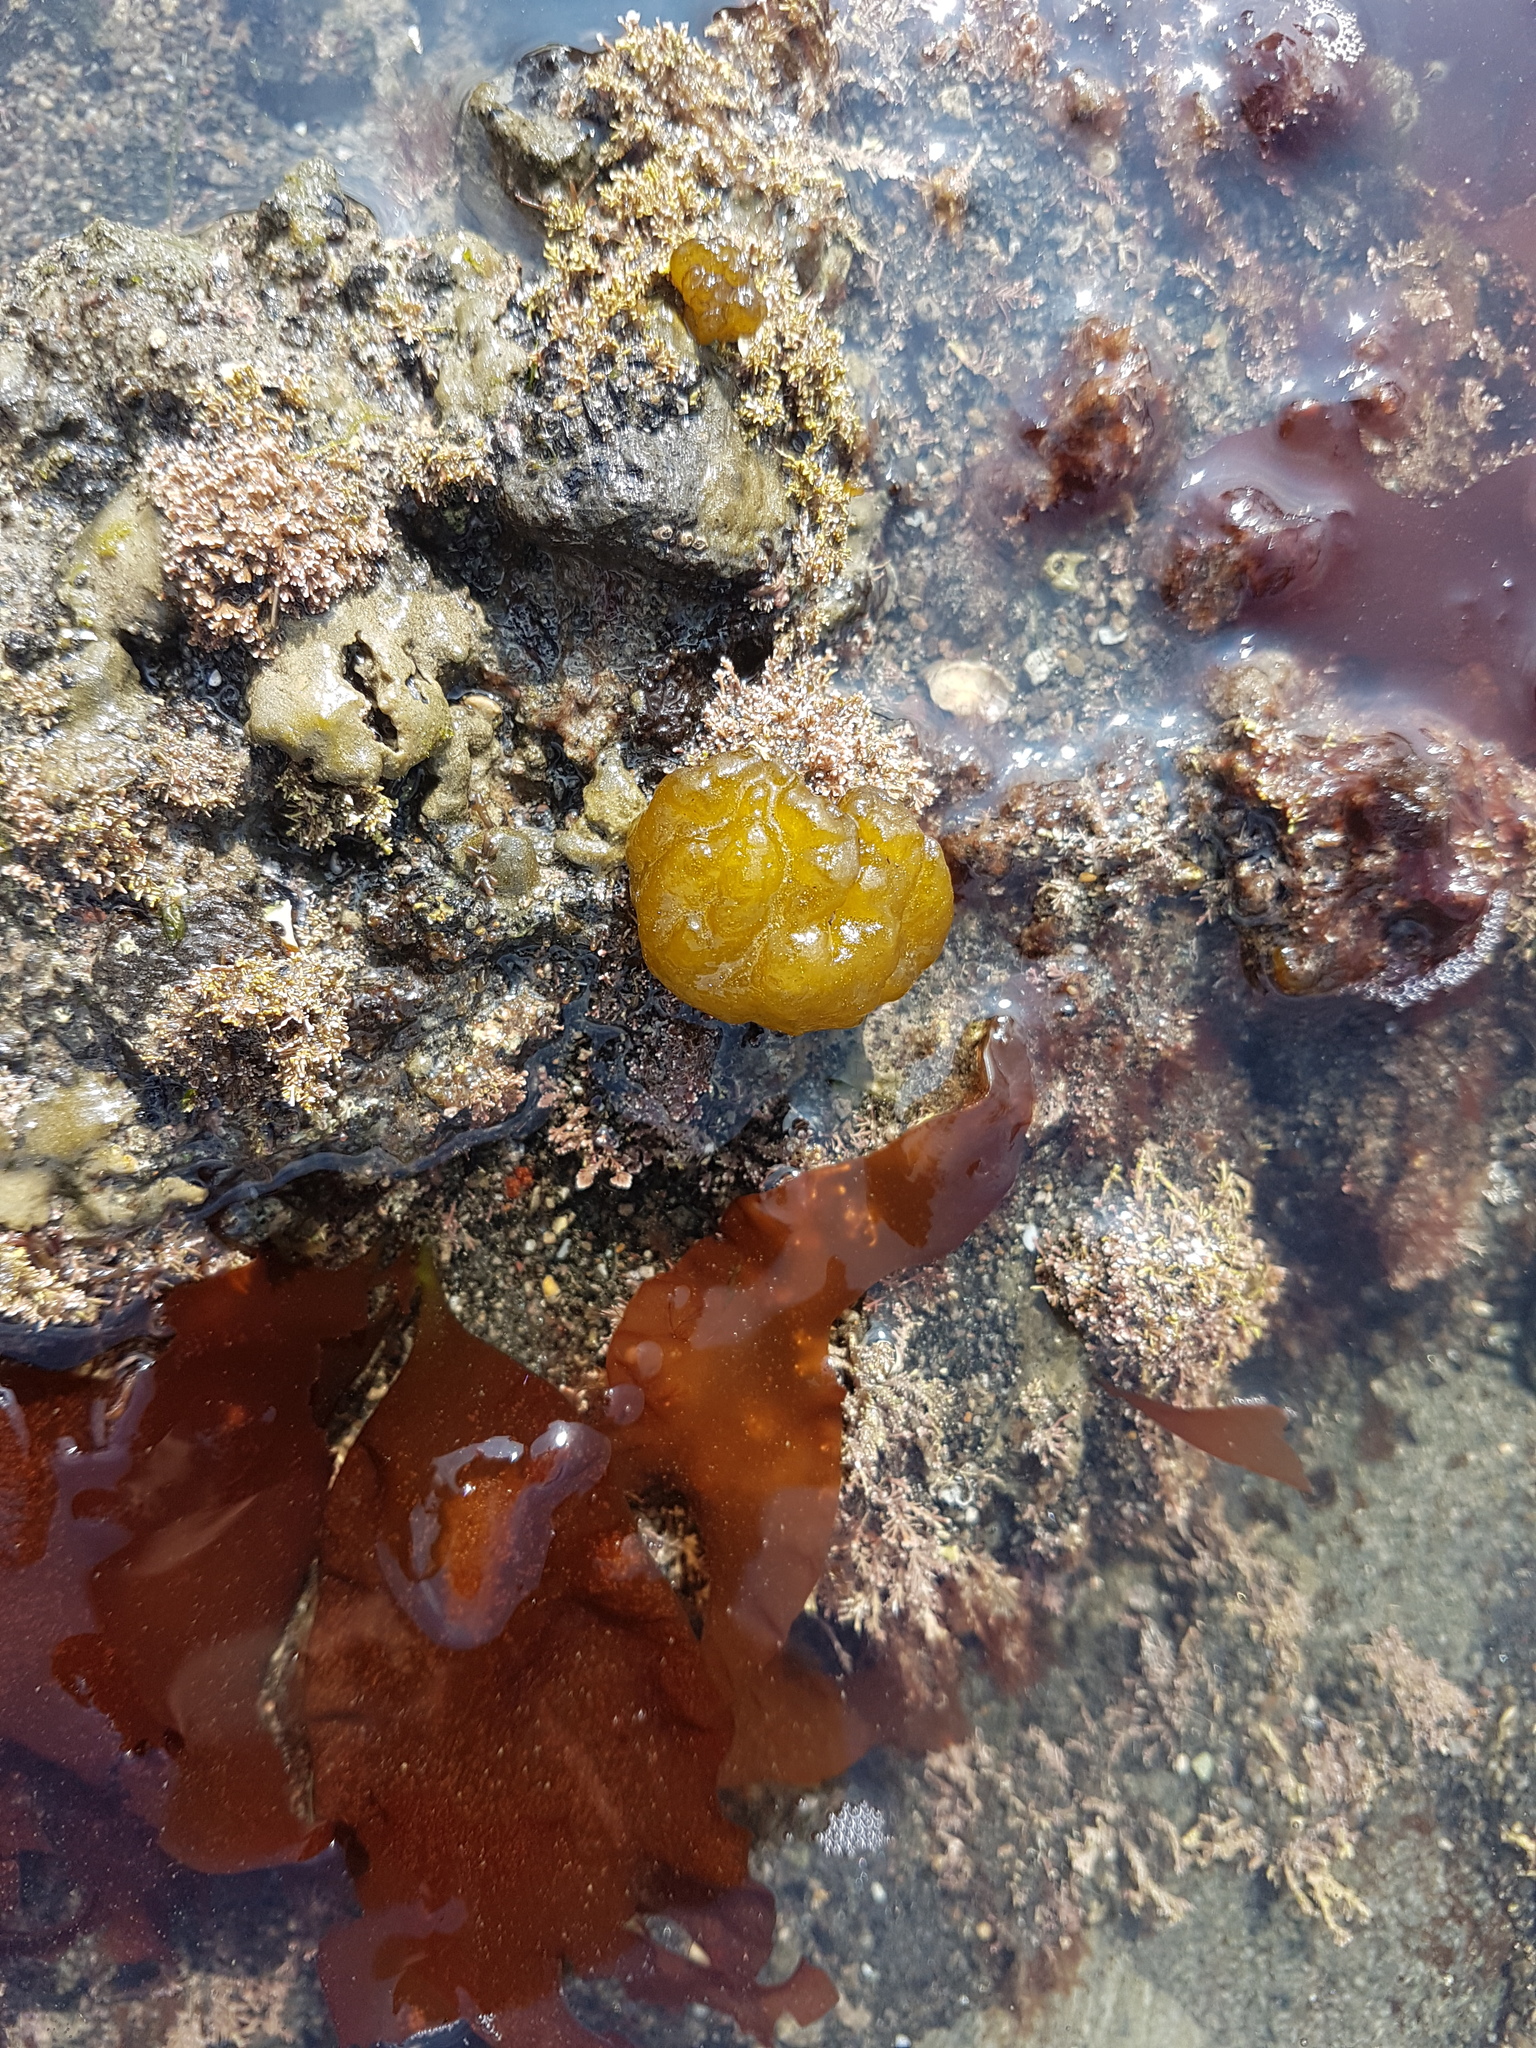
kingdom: Chromista
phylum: Ochrophyta
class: Phaeophyceae
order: Ectocarpales
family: Chordariaceae
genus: Leathesia
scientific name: Leathesia marina
